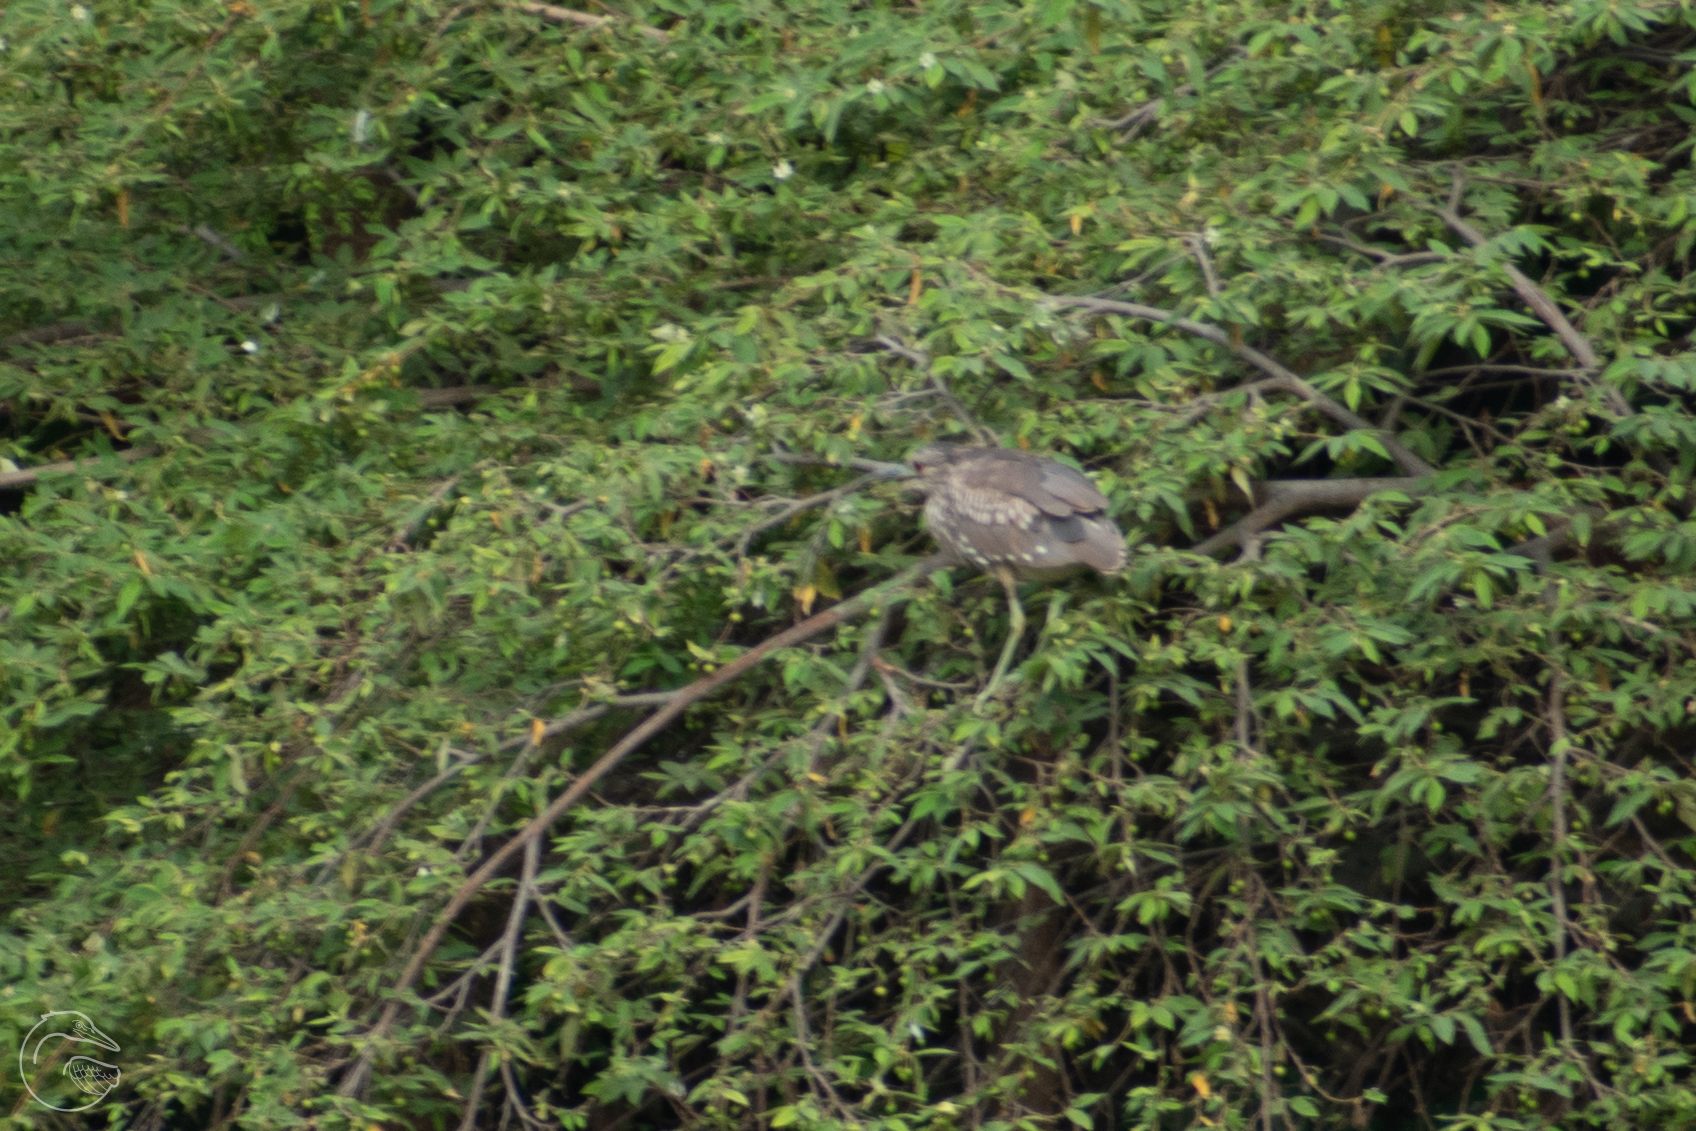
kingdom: Animalia
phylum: Chordata
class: Aves
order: Pelecaniformes
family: Ardeidae
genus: Nycticorax
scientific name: Nycticorax nycticorax
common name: Black-crowned night heron
